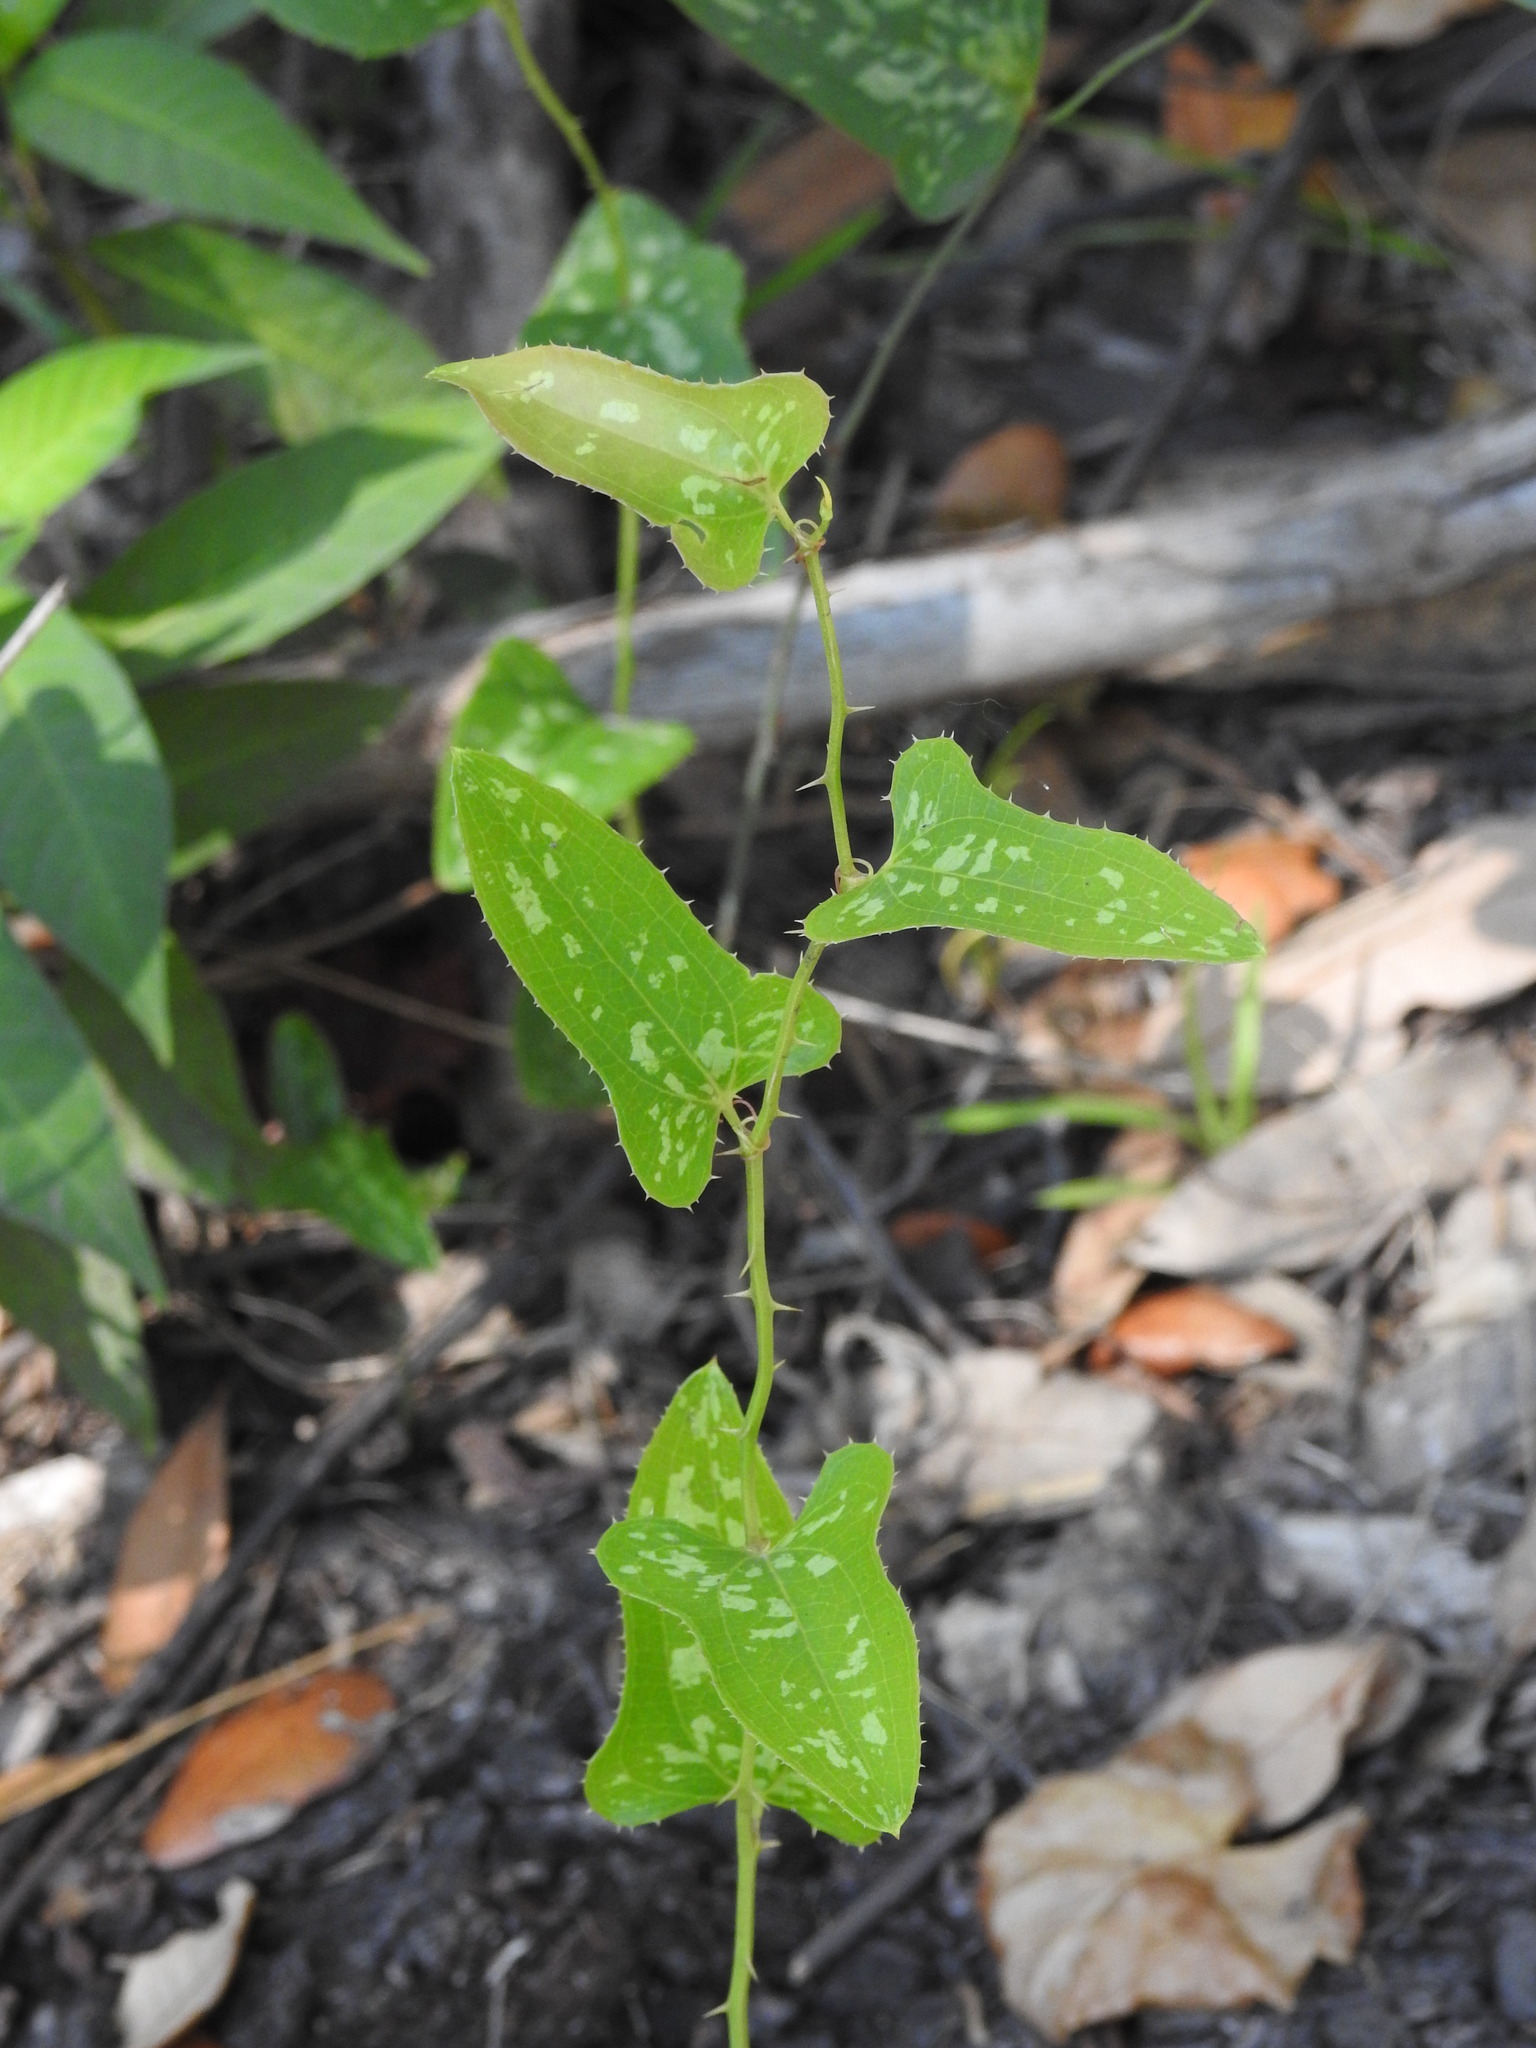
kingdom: Plantae
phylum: Tracheophyta
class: Liliopsida
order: Liliales
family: Smilacaceae
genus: Smilax
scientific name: Smilax bona-nox
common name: Catbrier
